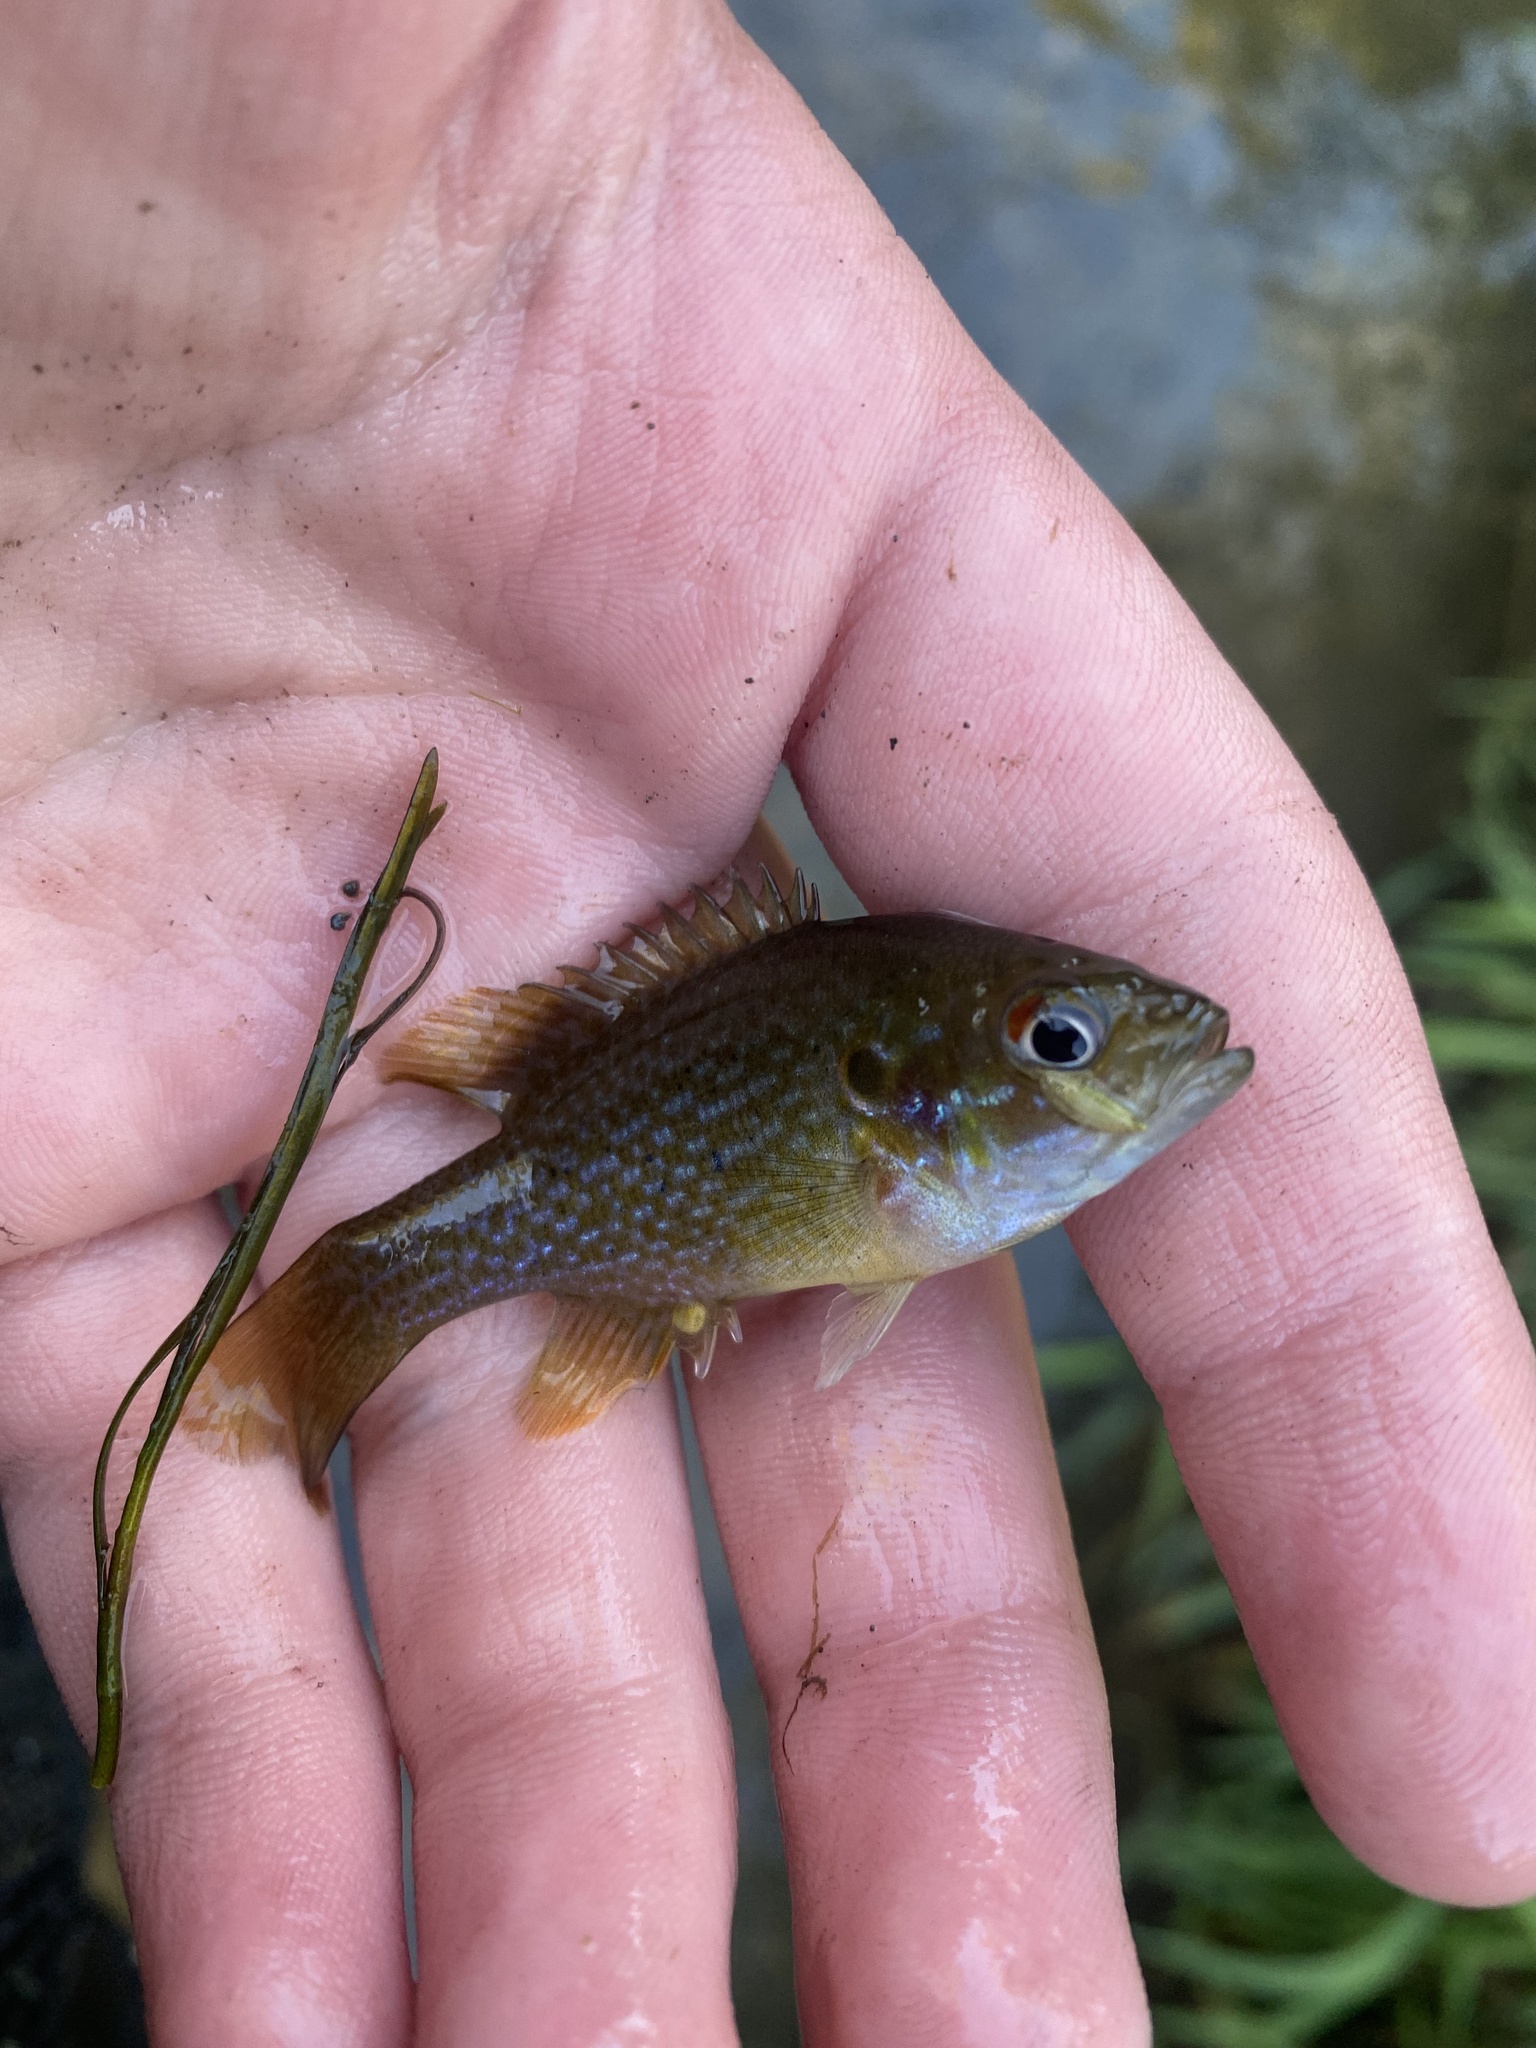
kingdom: Animalia
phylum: Chordata
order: Perciformes
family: Centrarchidae
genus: Lepomis
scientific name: Lepomis cyanellus
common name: Green sunfish
